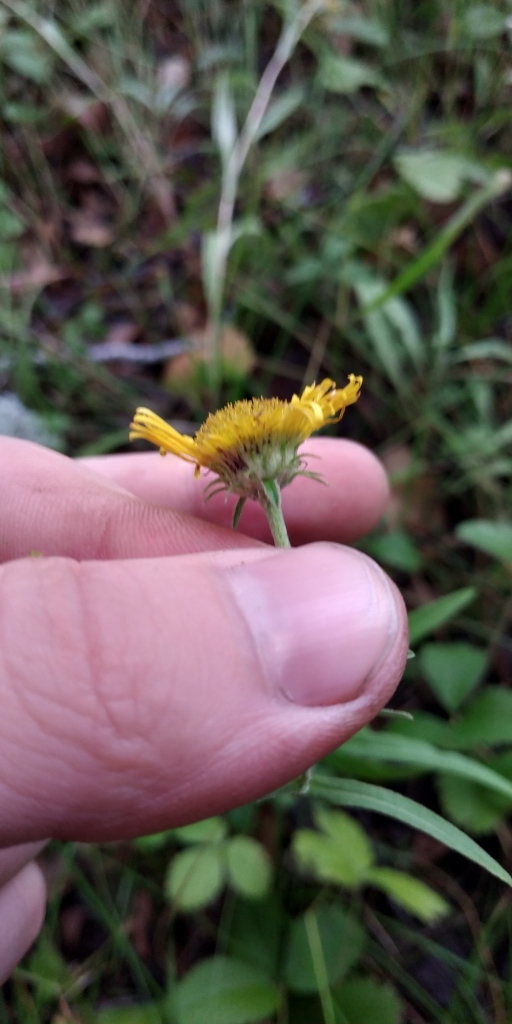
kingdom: Plantae
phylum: Tracheophyta
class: Magnoliopsida
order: Asterales
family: Asteraceae
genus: Pentanema
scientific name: Pentanema britannicum
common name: British elecampane
